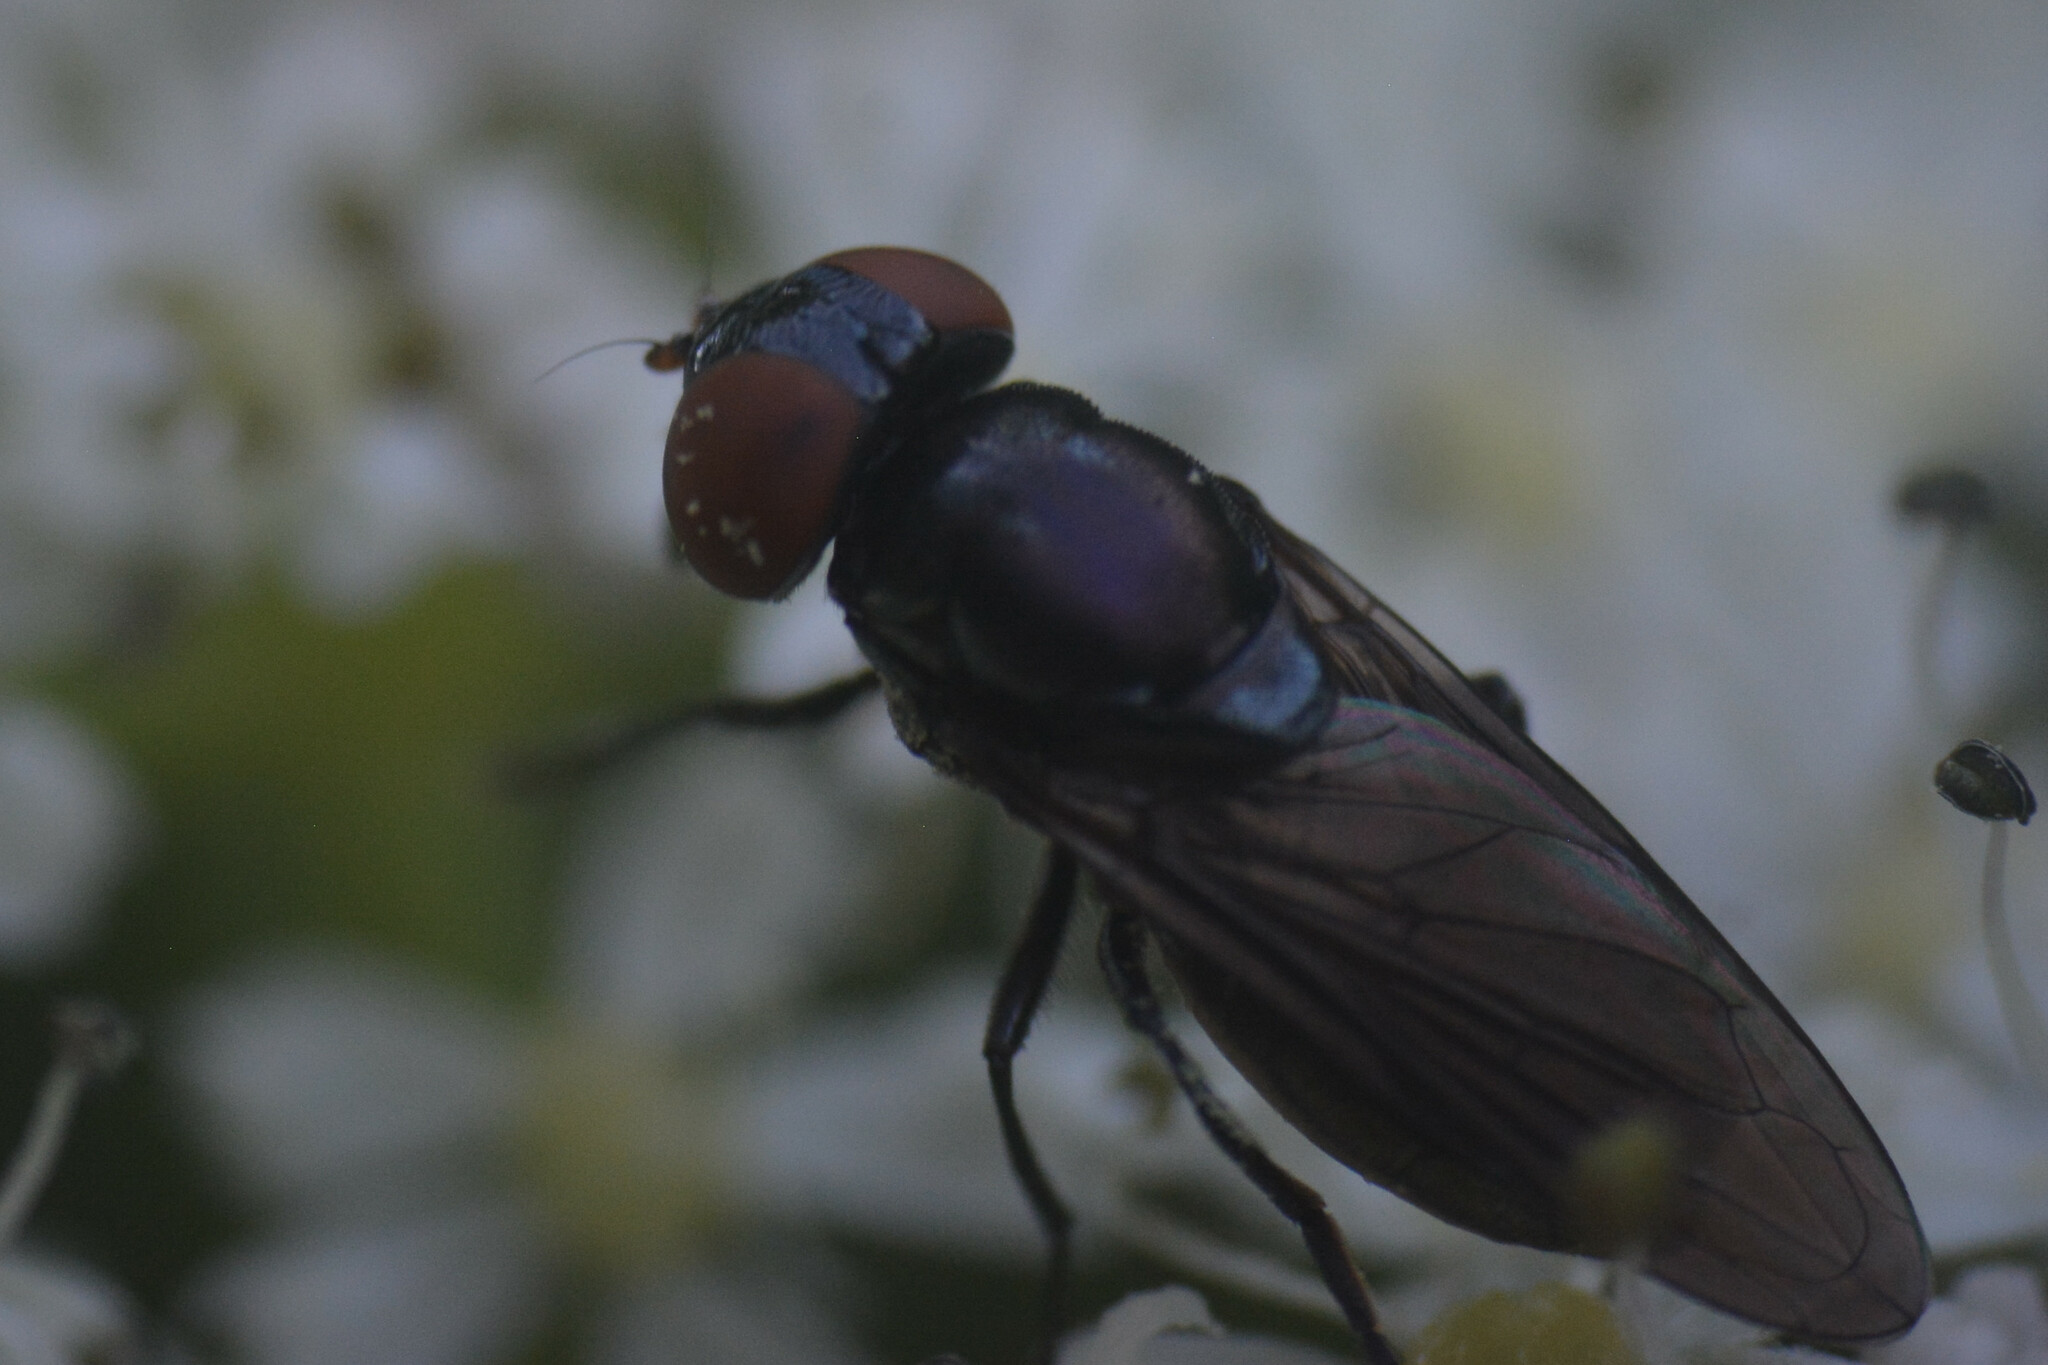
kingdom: Animalia
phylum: Arthropoda
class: Insecta
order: Diptera
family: Syrphidae
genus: Chrysogaster
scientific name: Chrysogaster solstitialis
